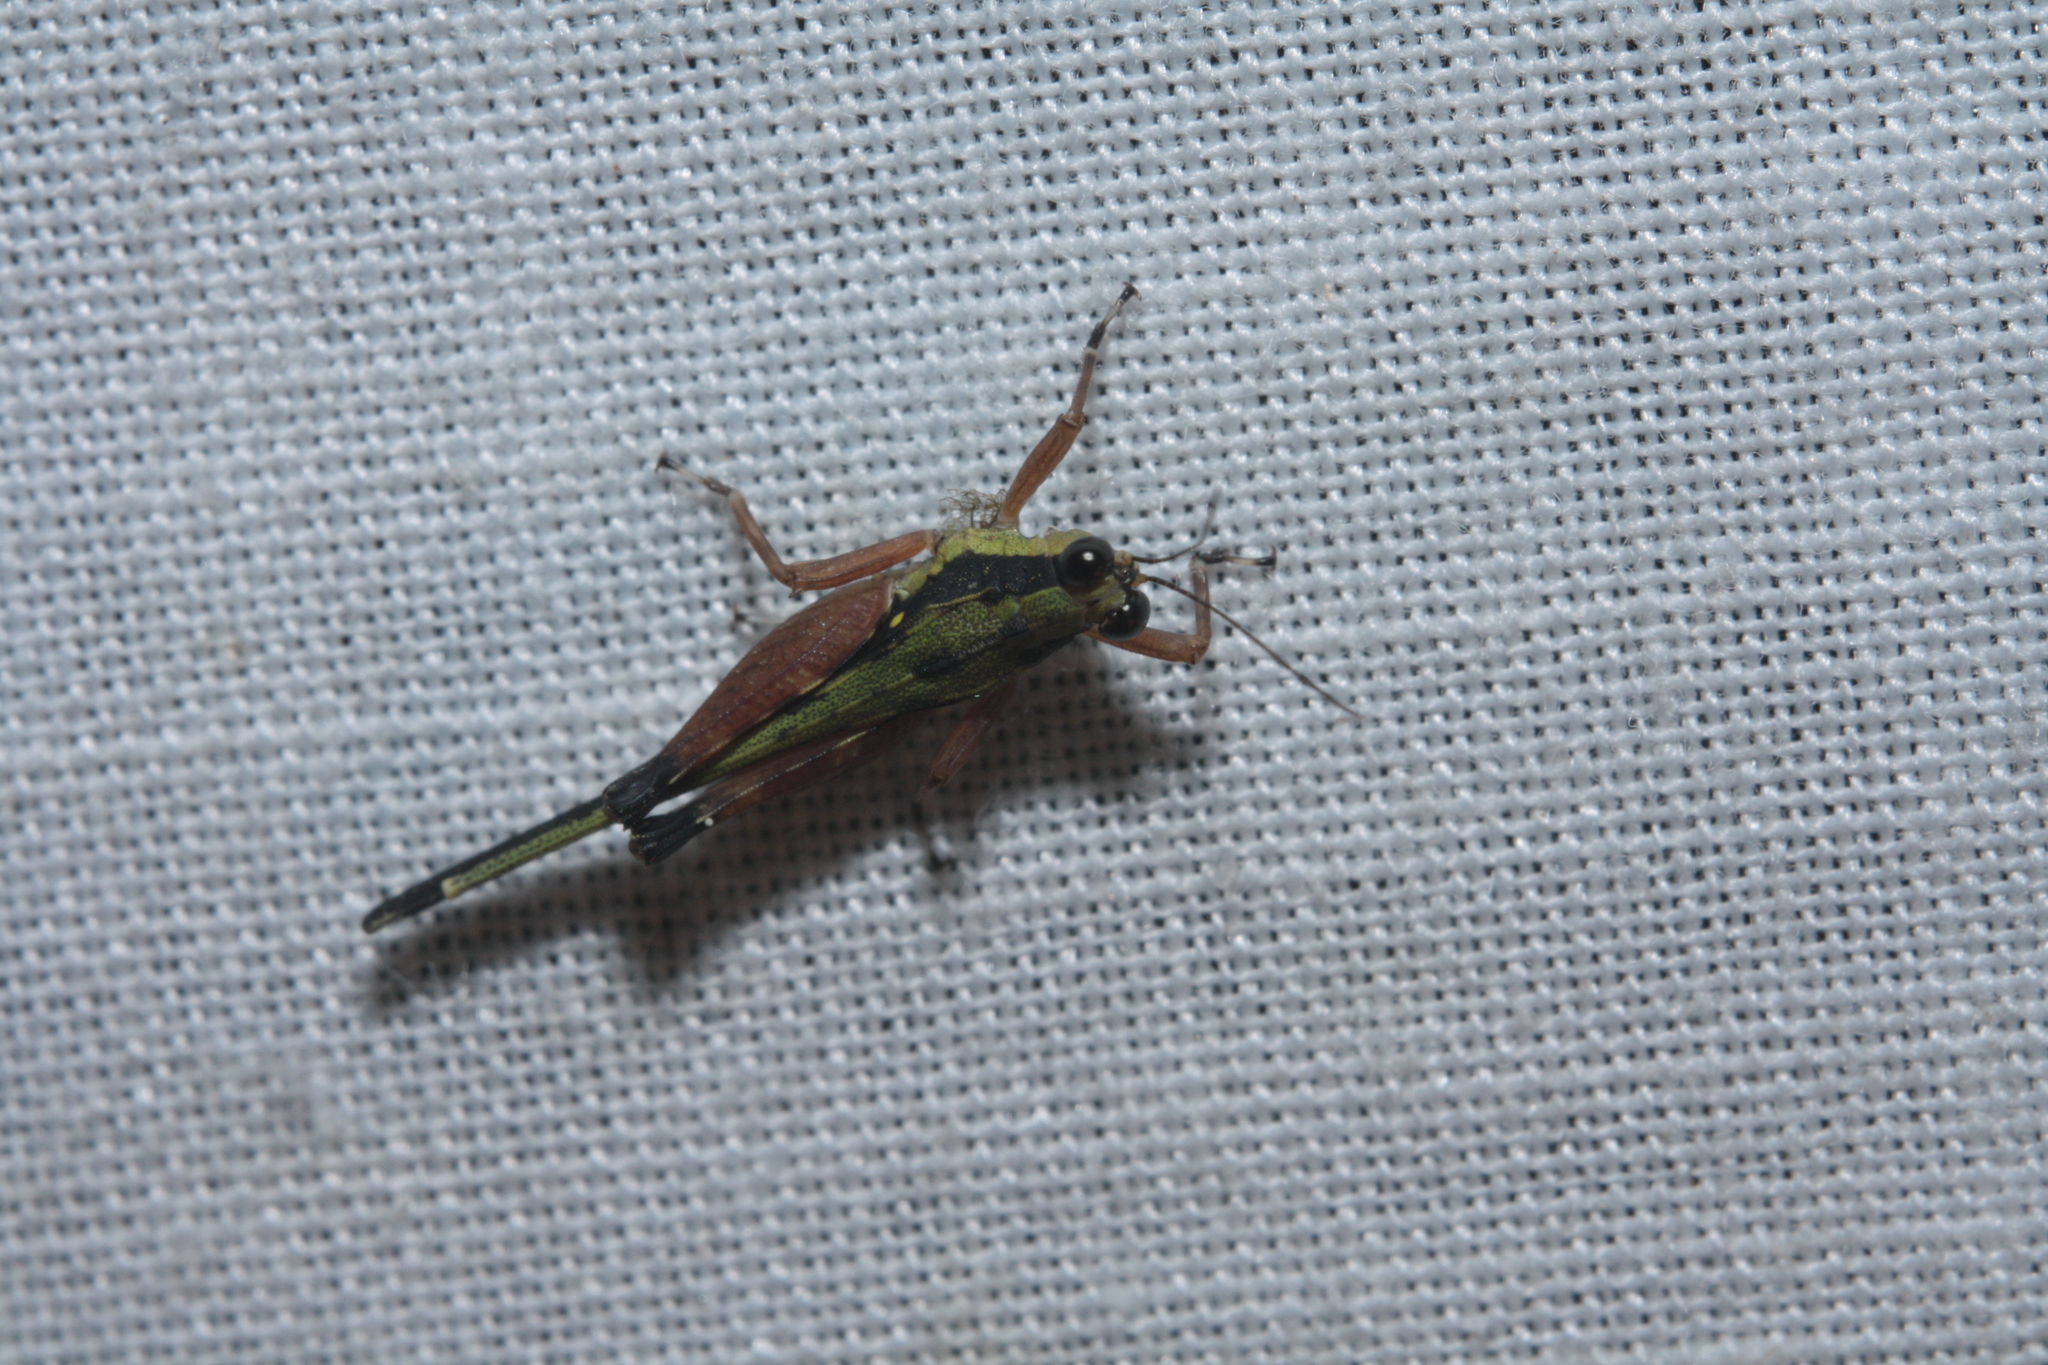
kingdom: Animalia
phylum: Arthropoda
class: Insecta
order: Orthoptera
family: Tetrigidae
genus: Scaria
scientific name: Scaria fasciata
